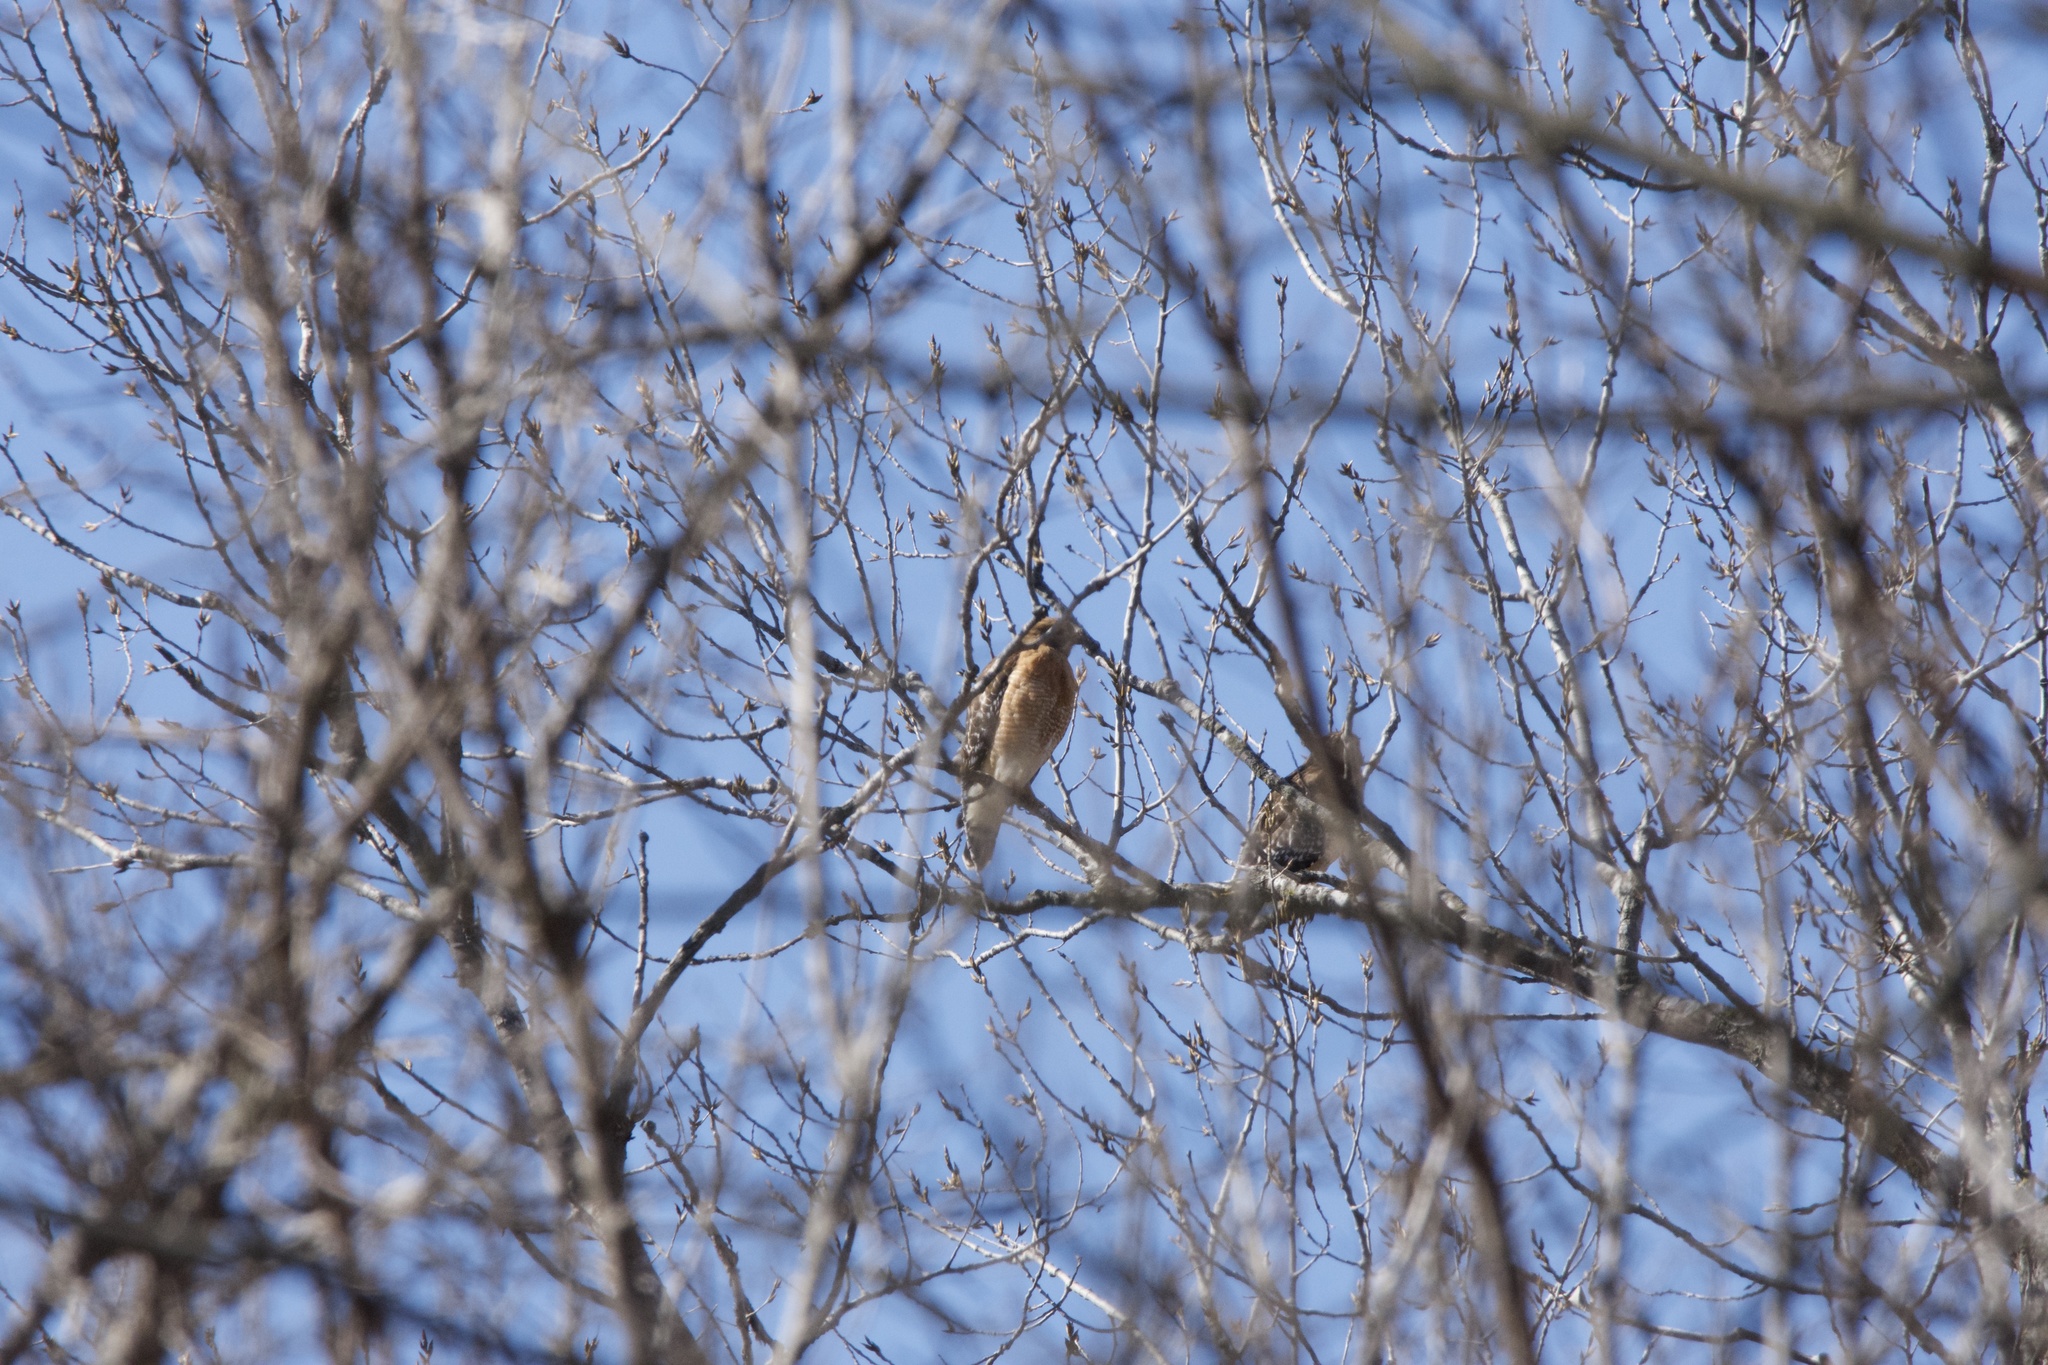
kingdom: Animalia
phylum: Chordata
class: Aves
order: Accipitriformes
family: Accipitridae
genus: Buteo
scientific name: Buteo lineatus
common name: Red-shouldered hawk
